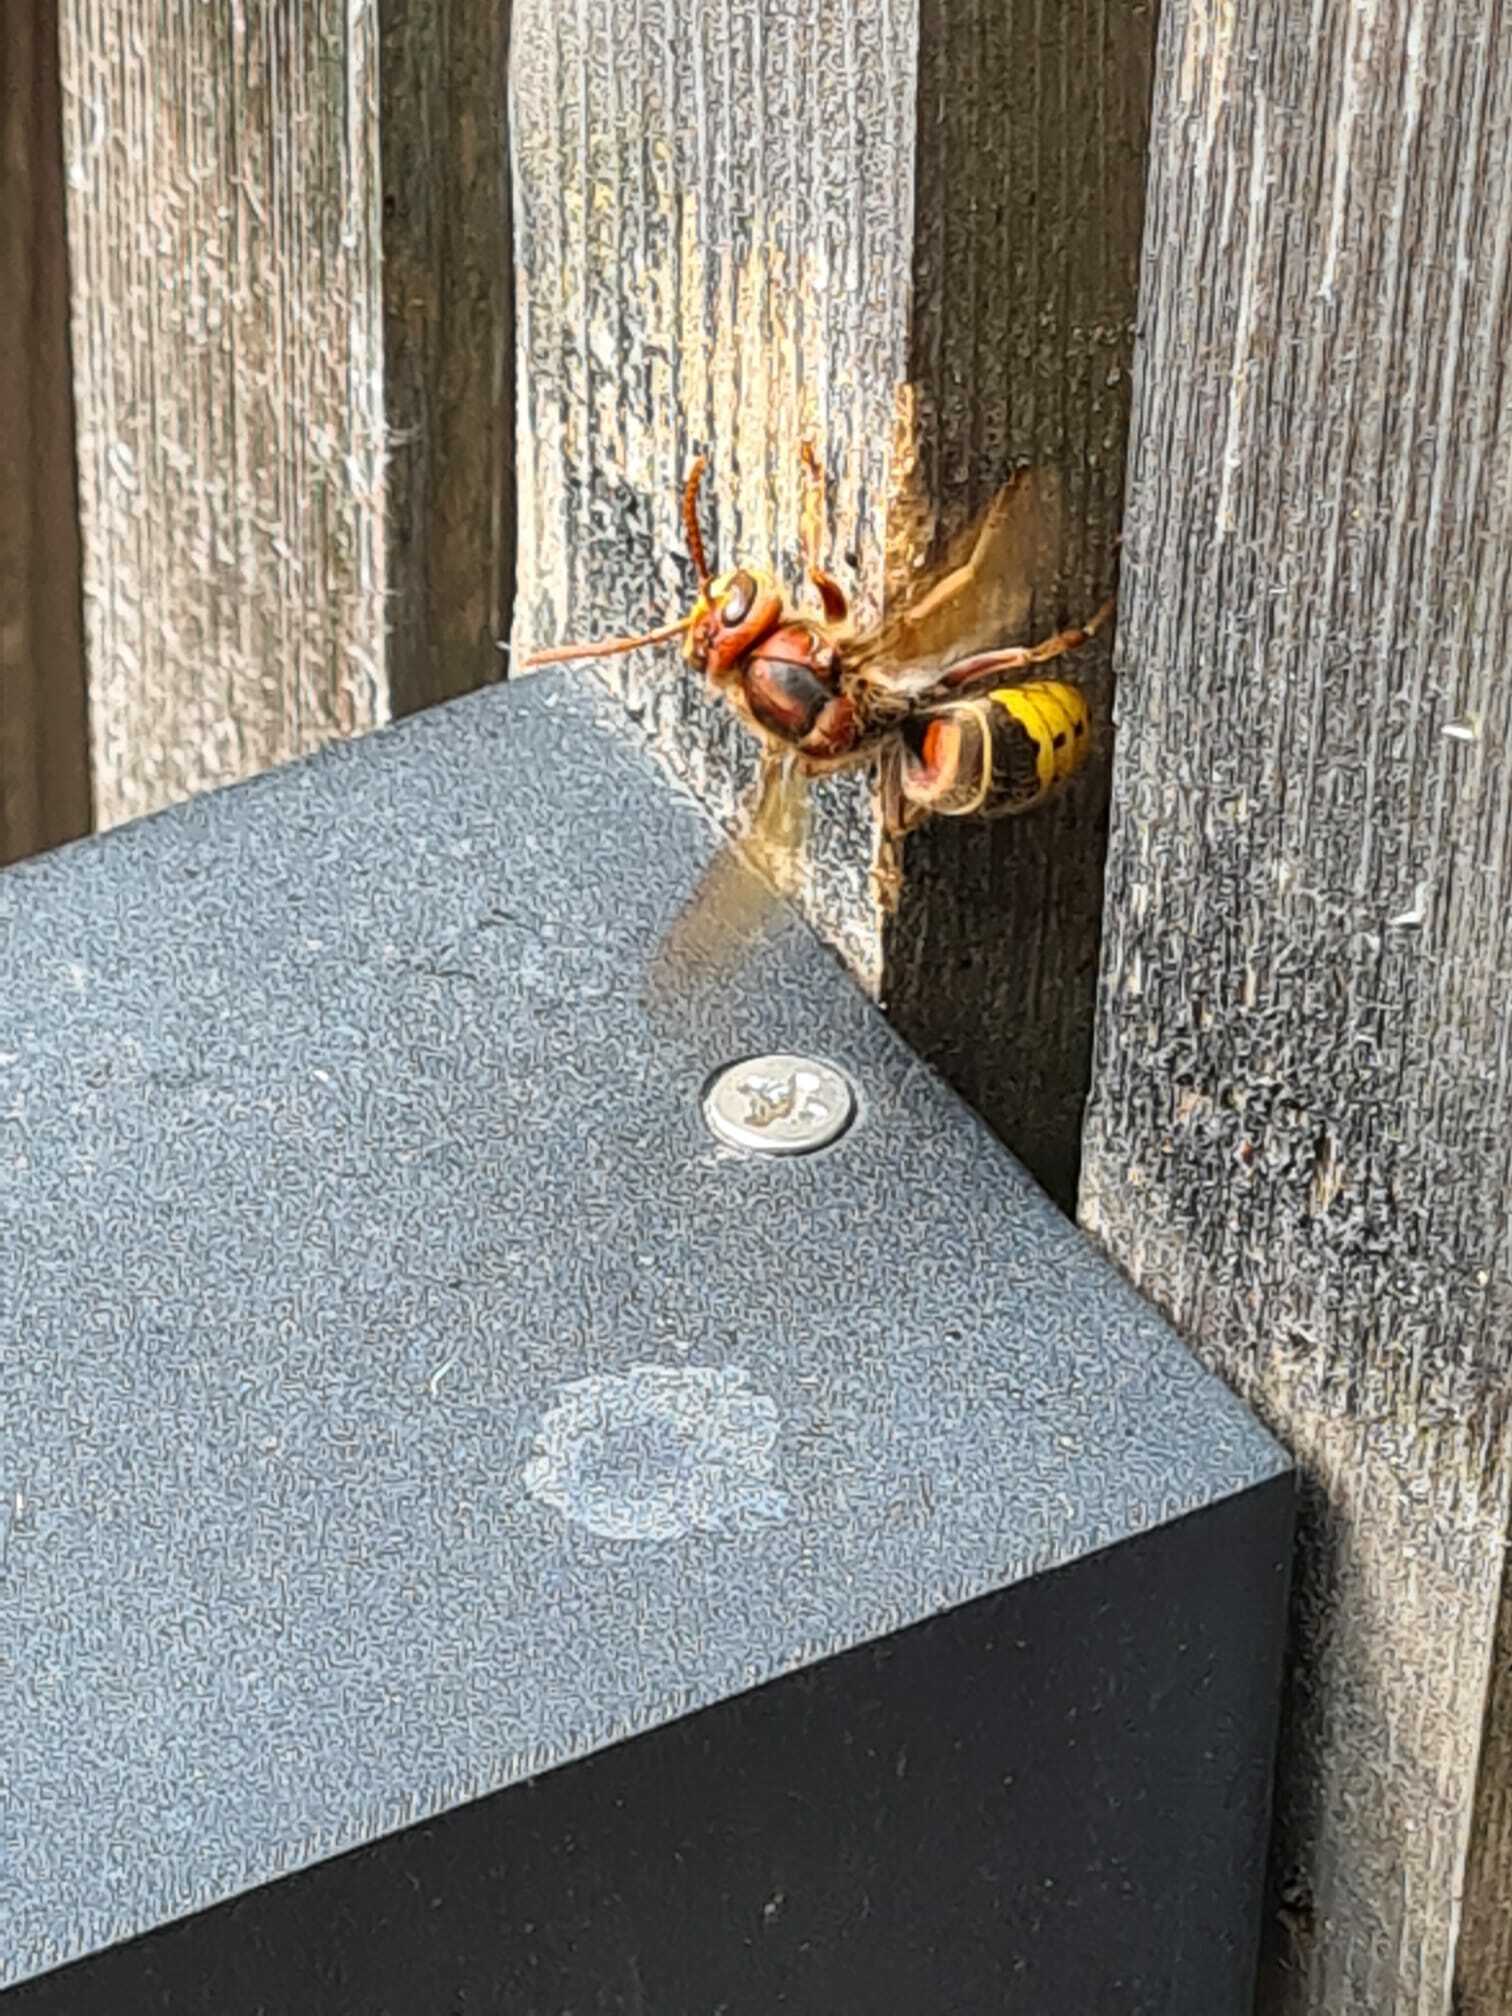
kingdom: Animalia
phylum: Arthropoda
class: Insecta
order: Hymenoptera
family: Vespidae
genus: Vespa
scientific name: Vespa crabro
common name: Hornet
